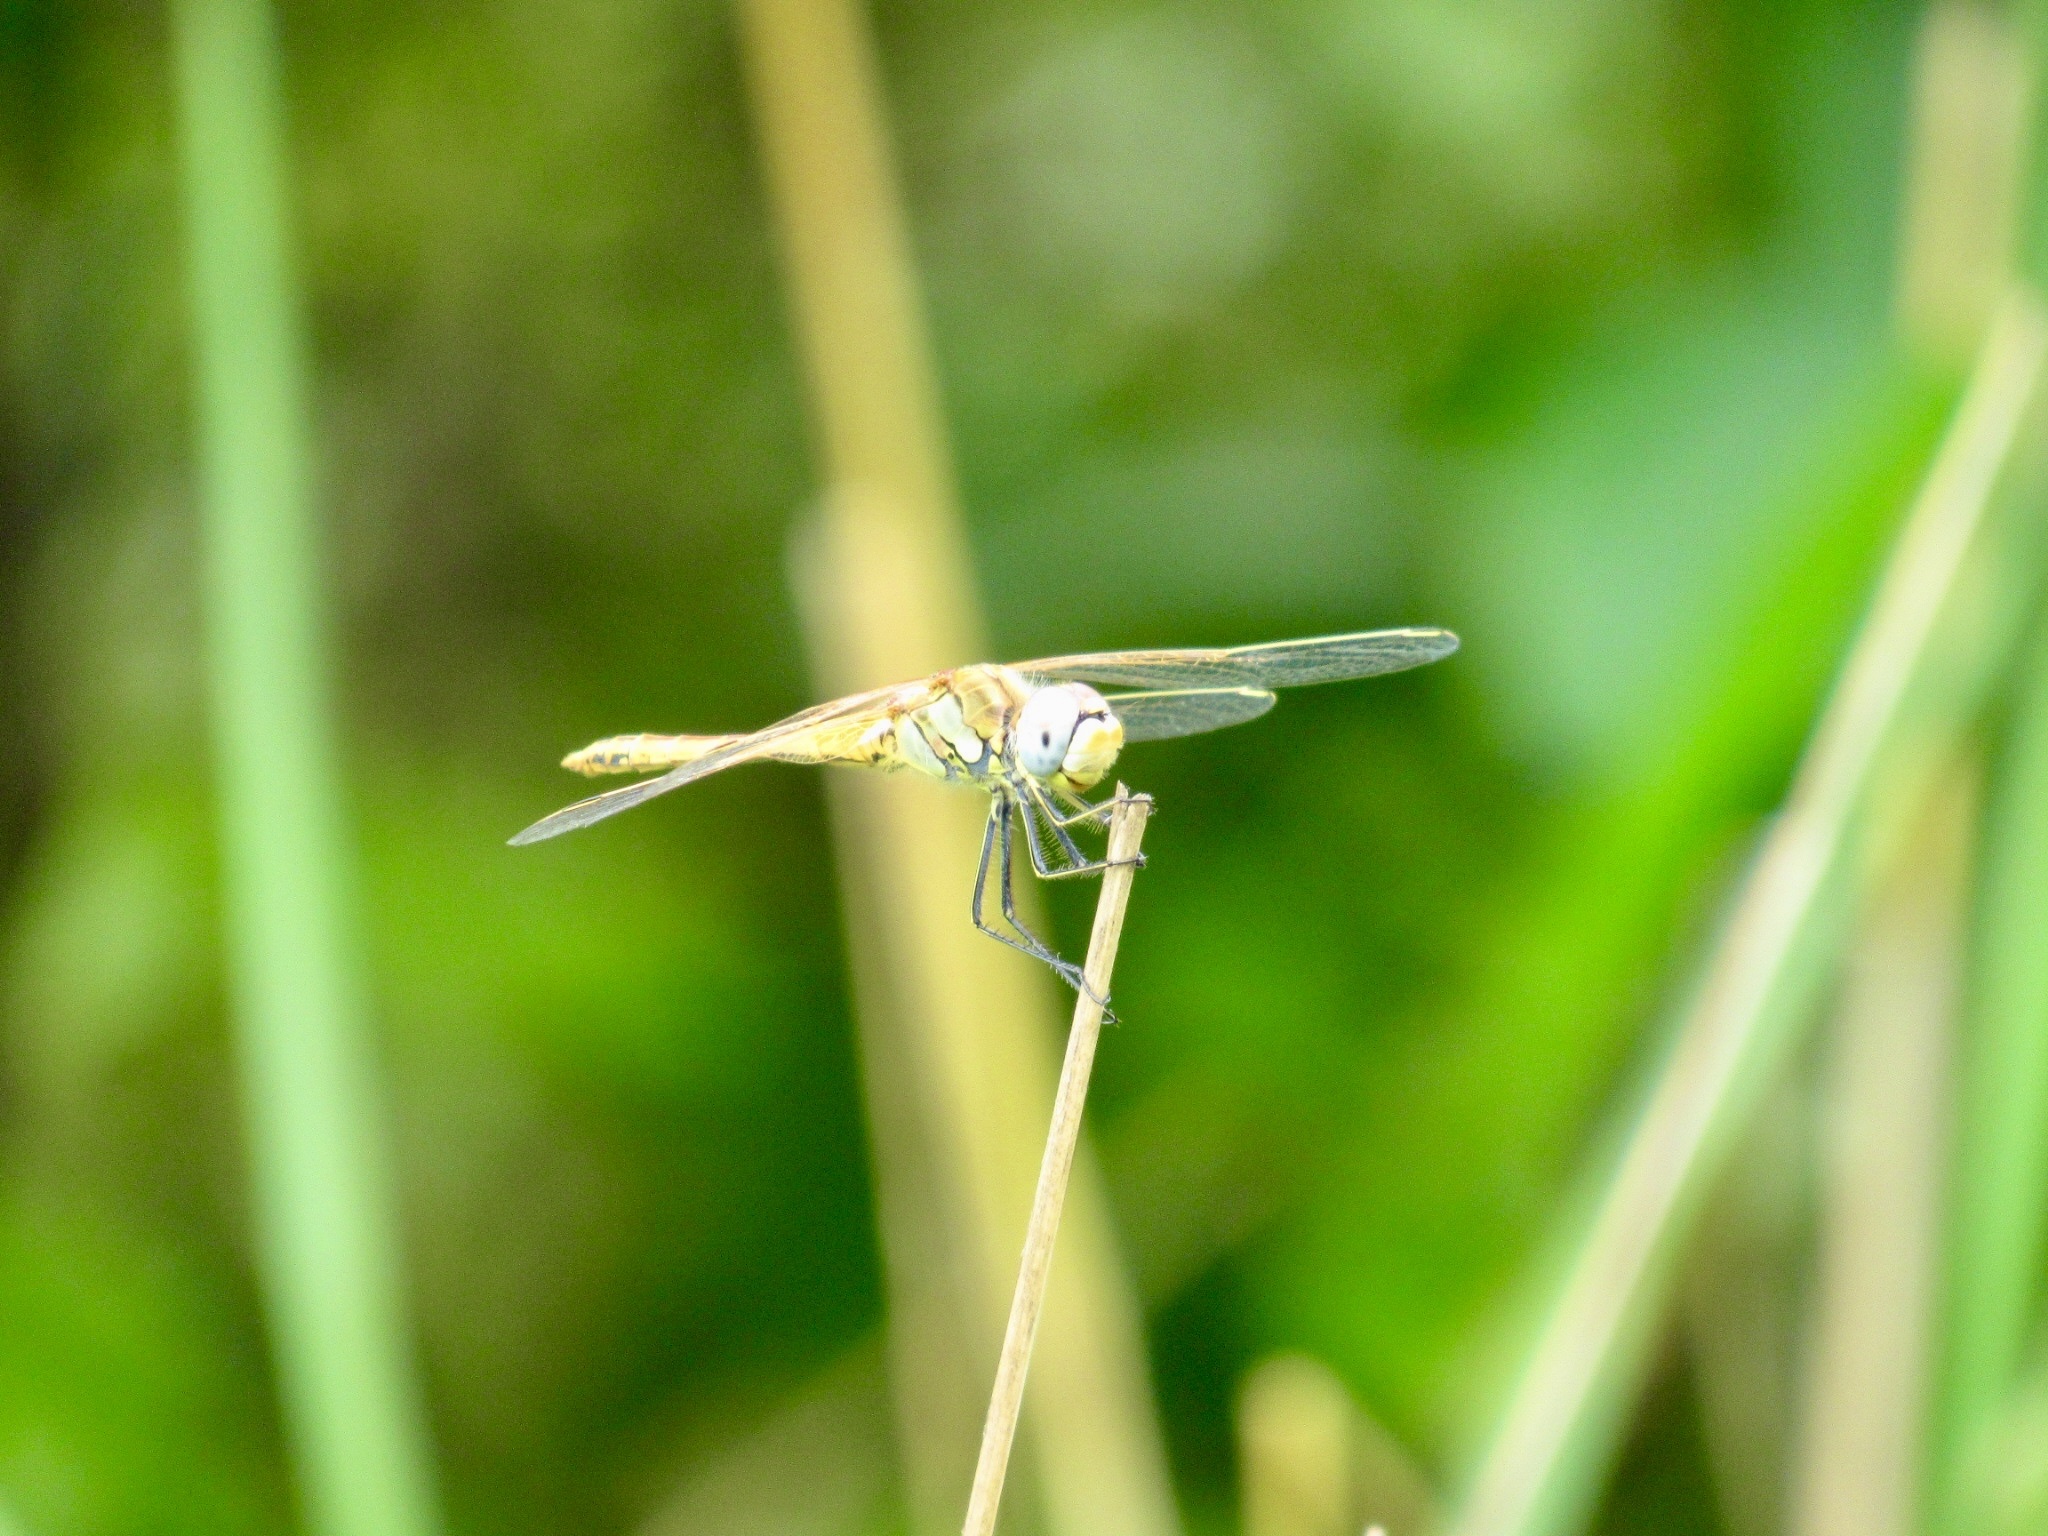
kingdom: Animalia
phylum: Arthropoda
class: Insecta
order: Odonata
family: Libellulidae
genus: Sympetrum
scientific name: Sympetrum fonscolombii
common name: Red-veined darter
